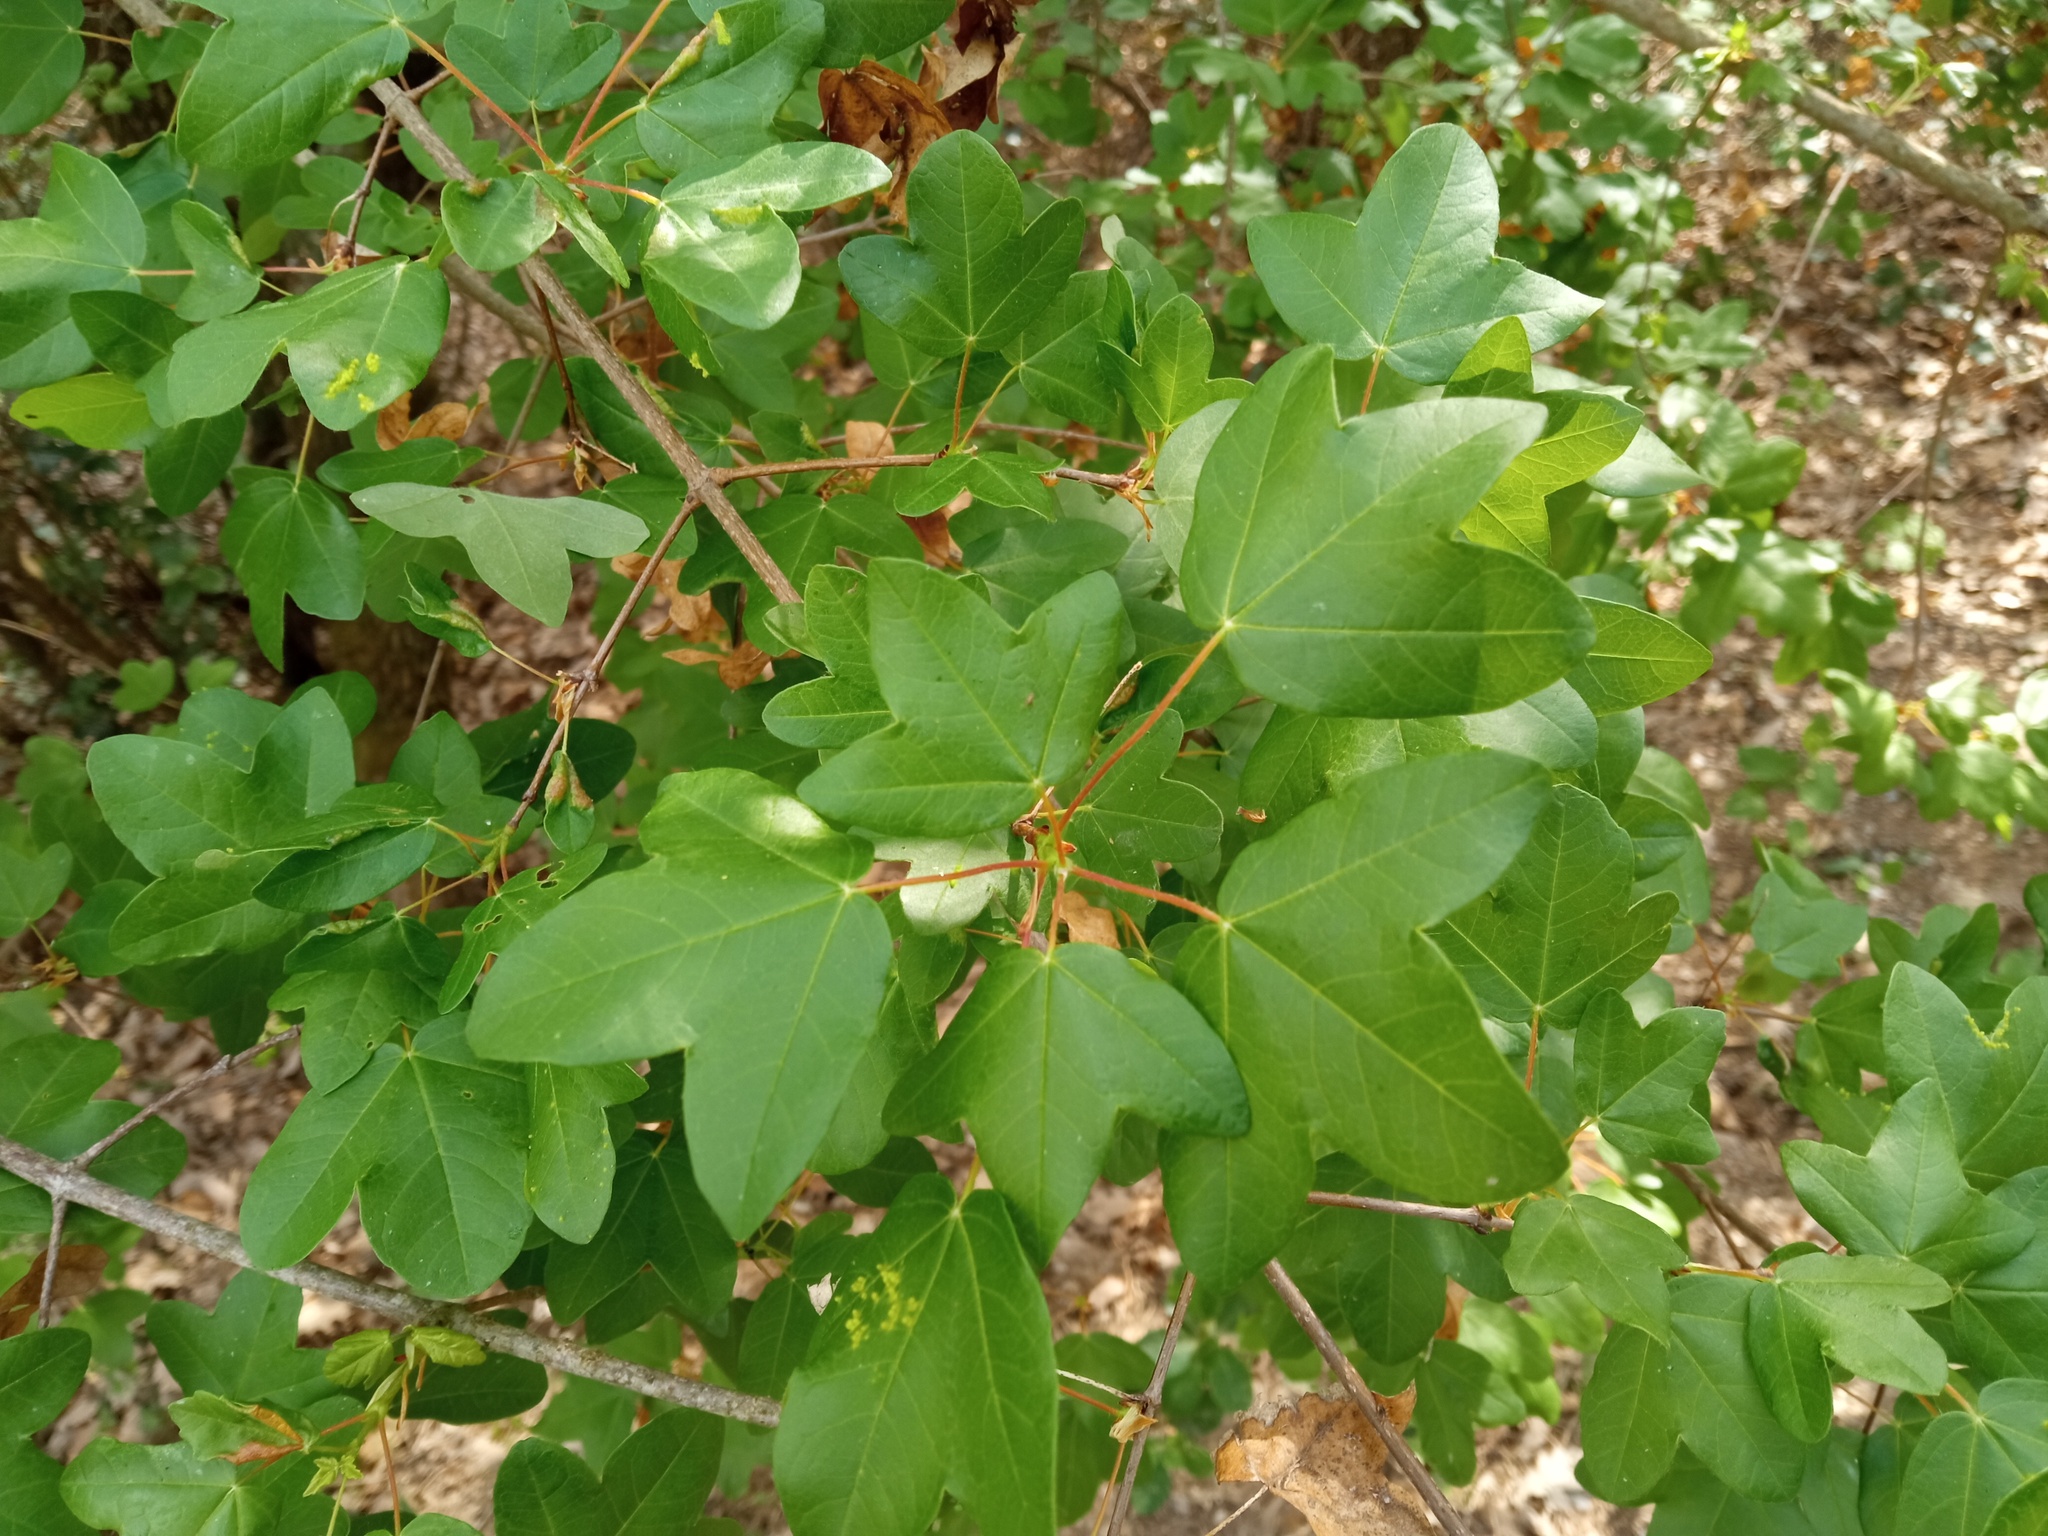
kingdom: Plantae
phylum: Tracheophyta
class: Magnoliopsida
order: Sapindales
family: Sapindaceae
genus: Acer
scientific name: Acer monspessulanum
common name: Montpellier maple
